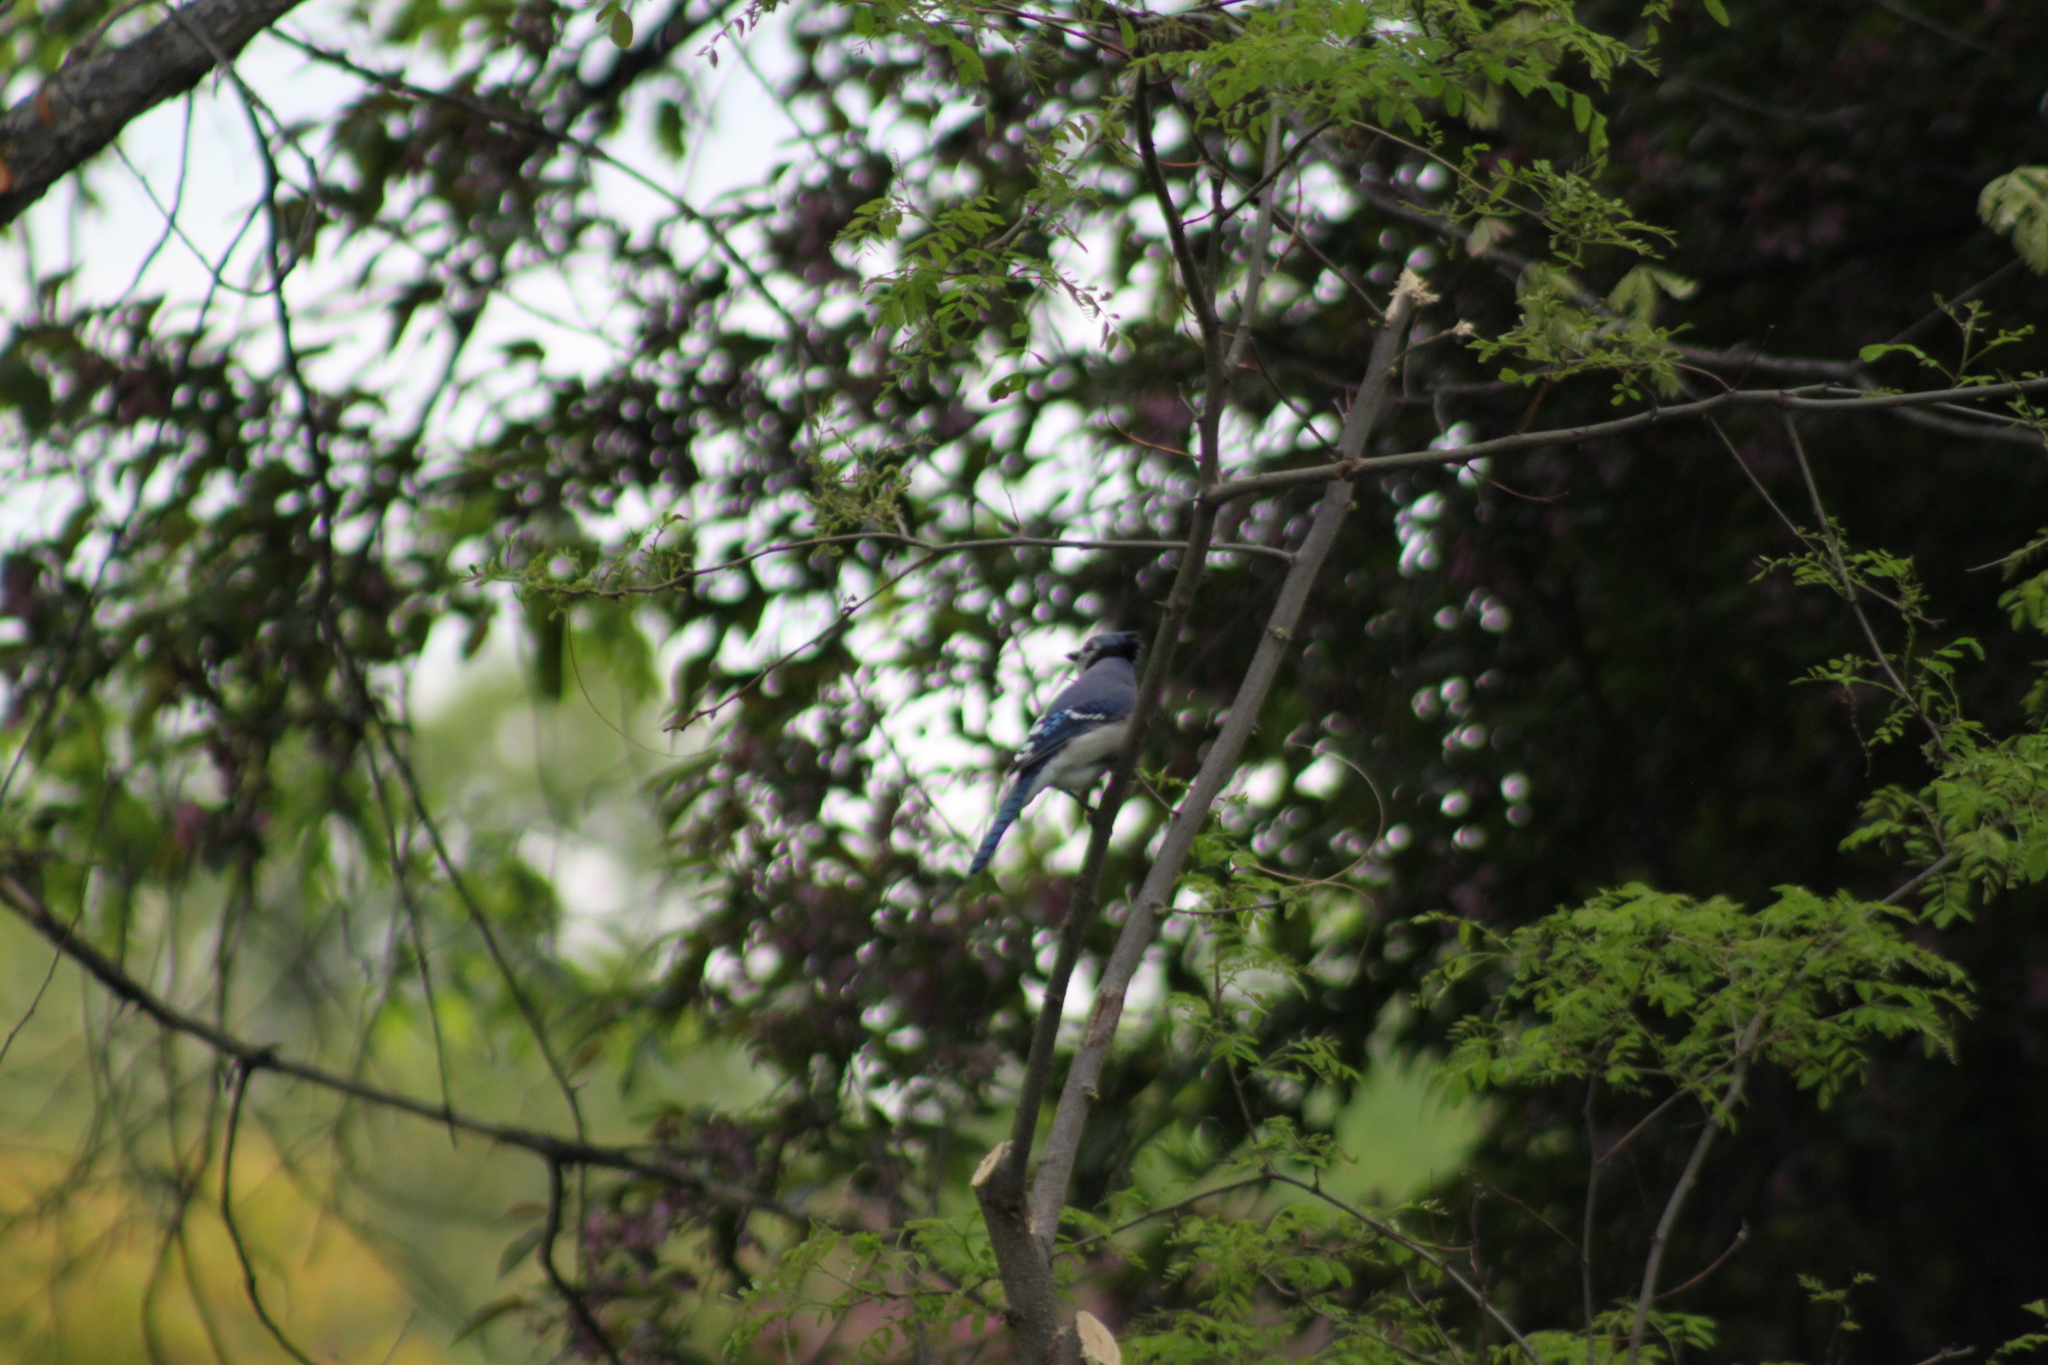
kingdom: Animalia
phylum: Chordata
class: Aves
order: Passeriformes
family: Corvidae
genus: Cyanocitta
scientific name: Cyanocitta cristata
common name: Blue jay
